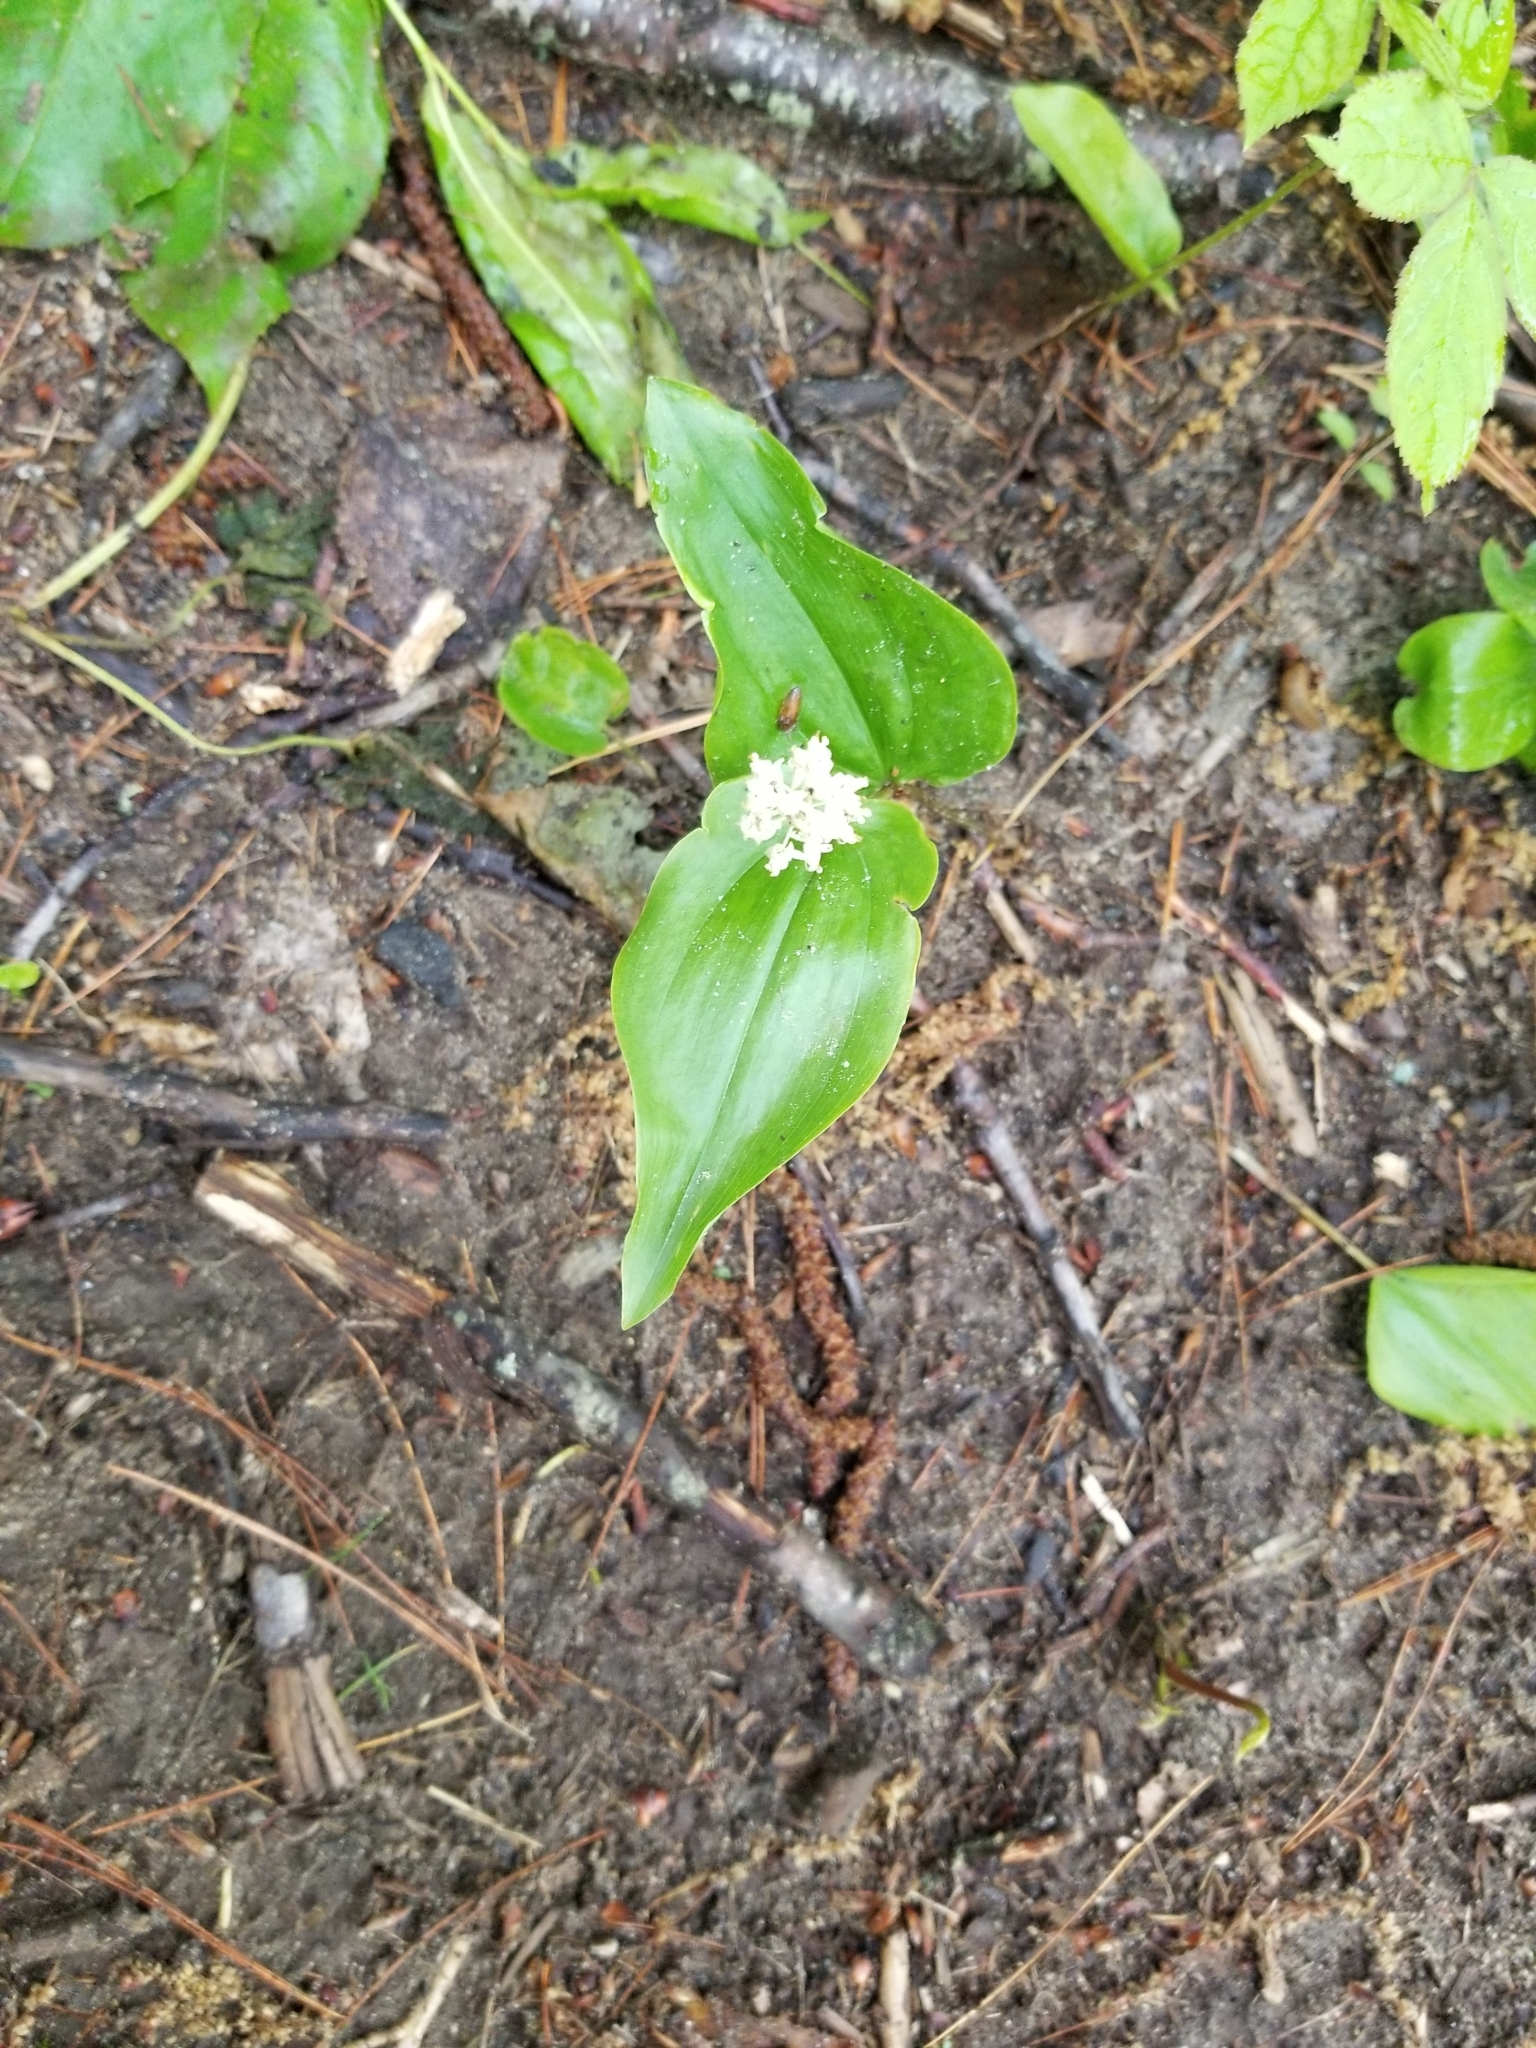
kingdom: Plantae
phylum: Tracheophyta
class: Liliopsida
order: Asparagales
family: Asparagaceae
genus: Maianthemum
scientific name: Maianthemum canadense
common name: False lily-of-the-valley
